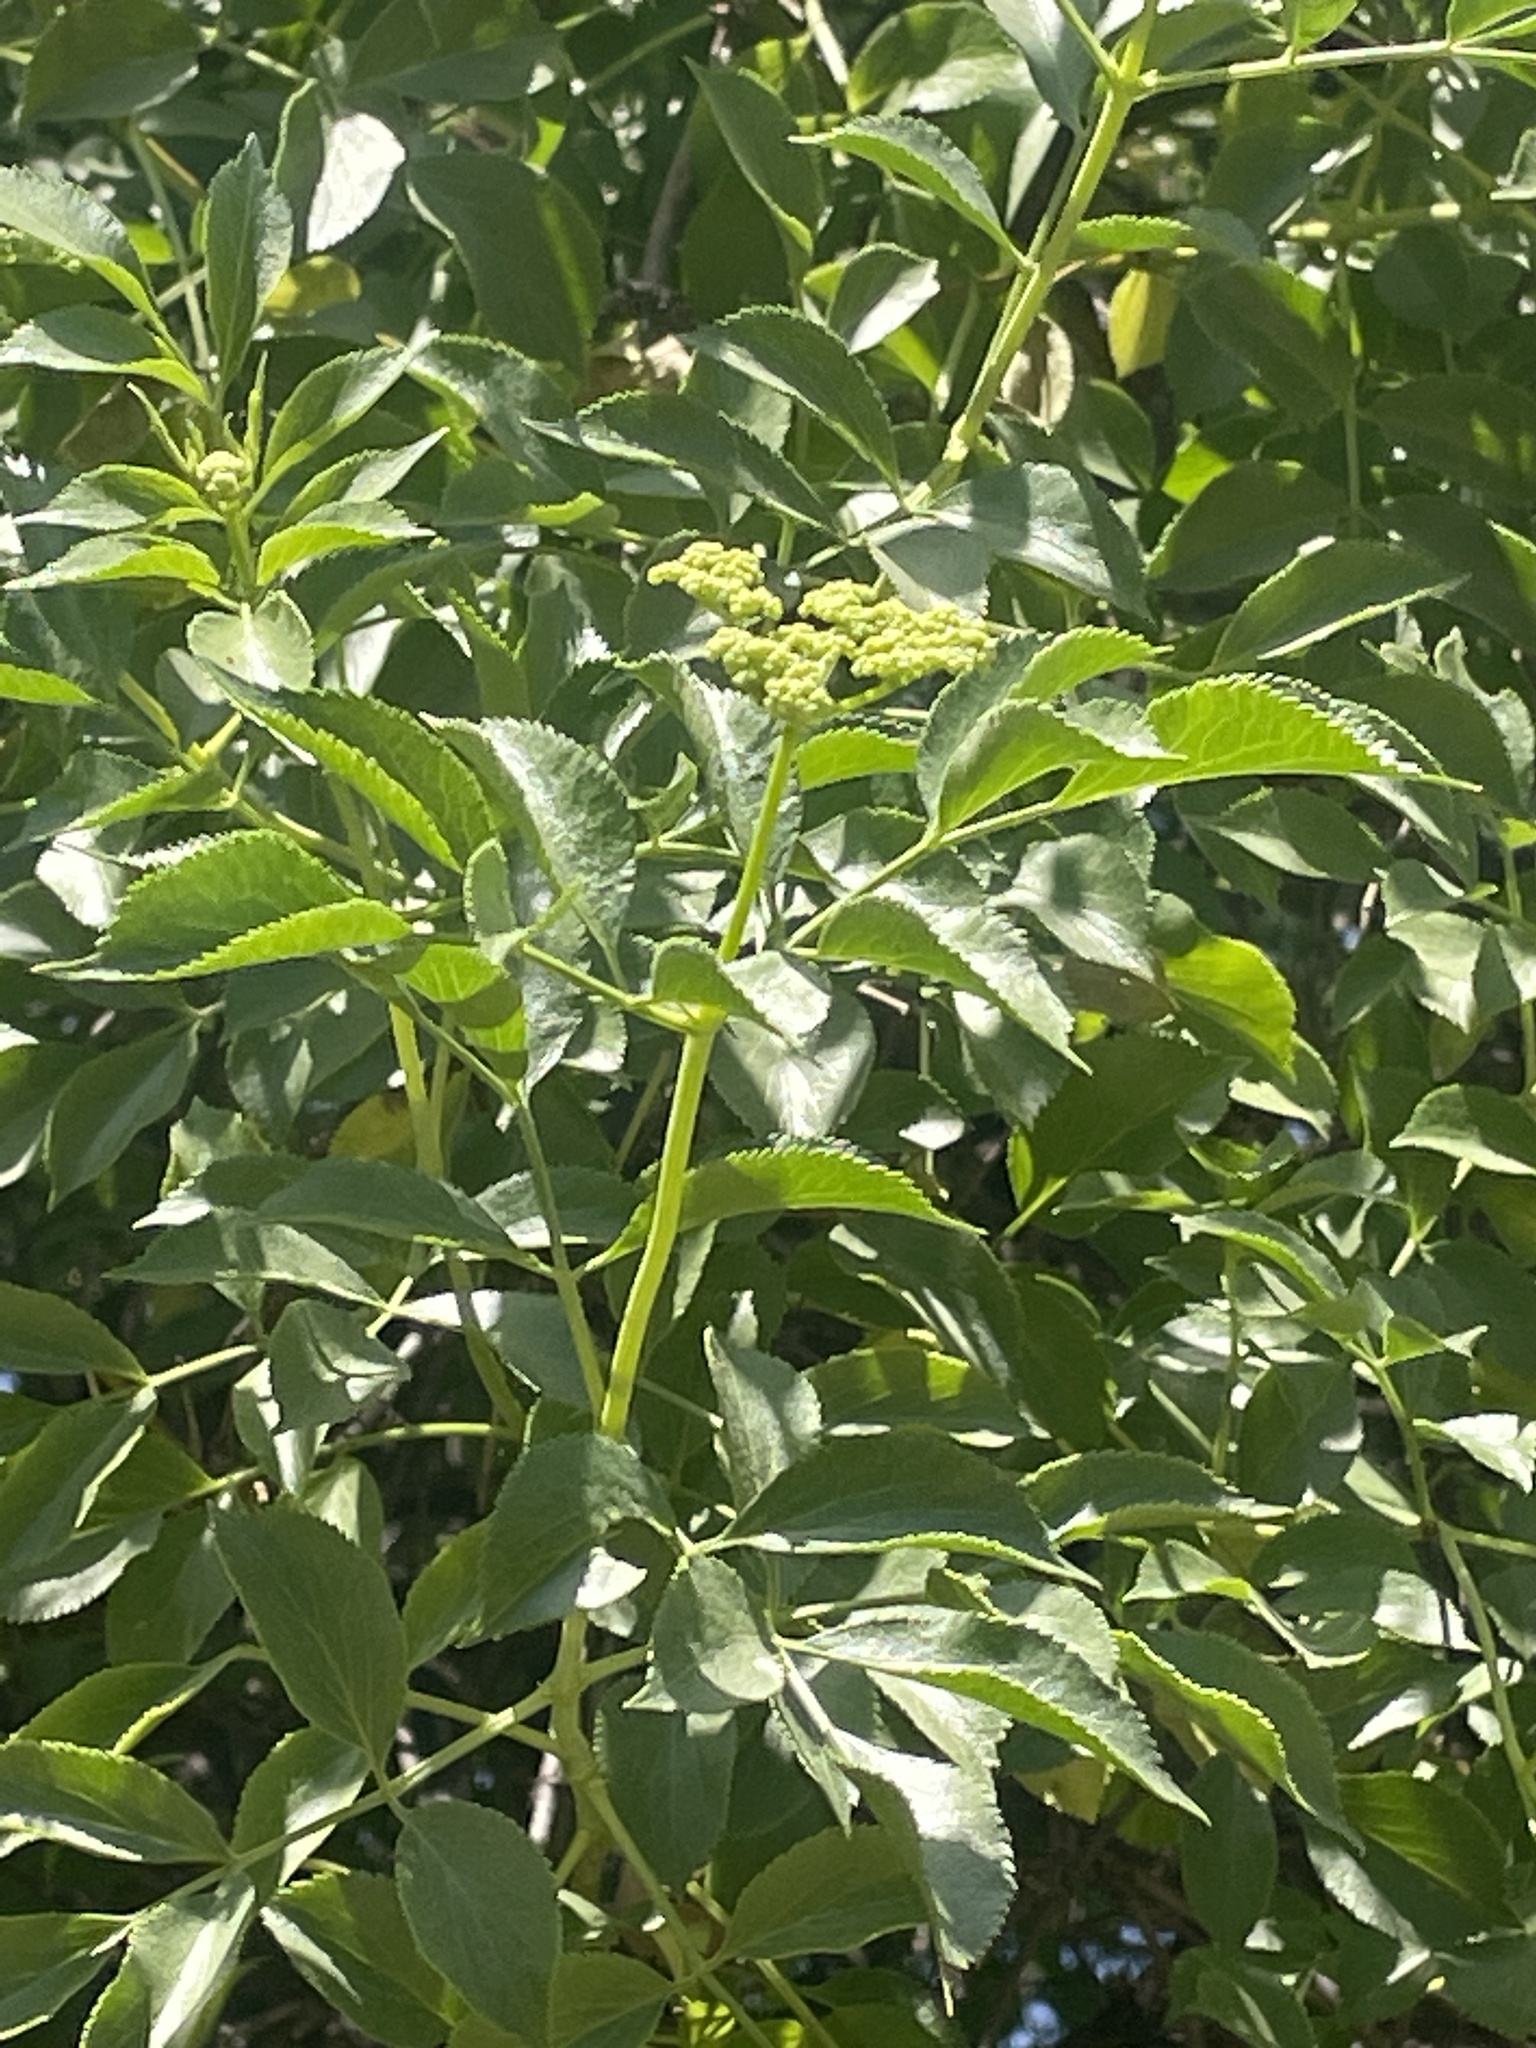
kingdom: Plantae
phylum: Tracheophyta
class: Magnoliopsida
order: Dipsacales
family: Viburnaceae
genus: Sambucus
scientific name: Sambucus cerulea
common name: Blue elder
